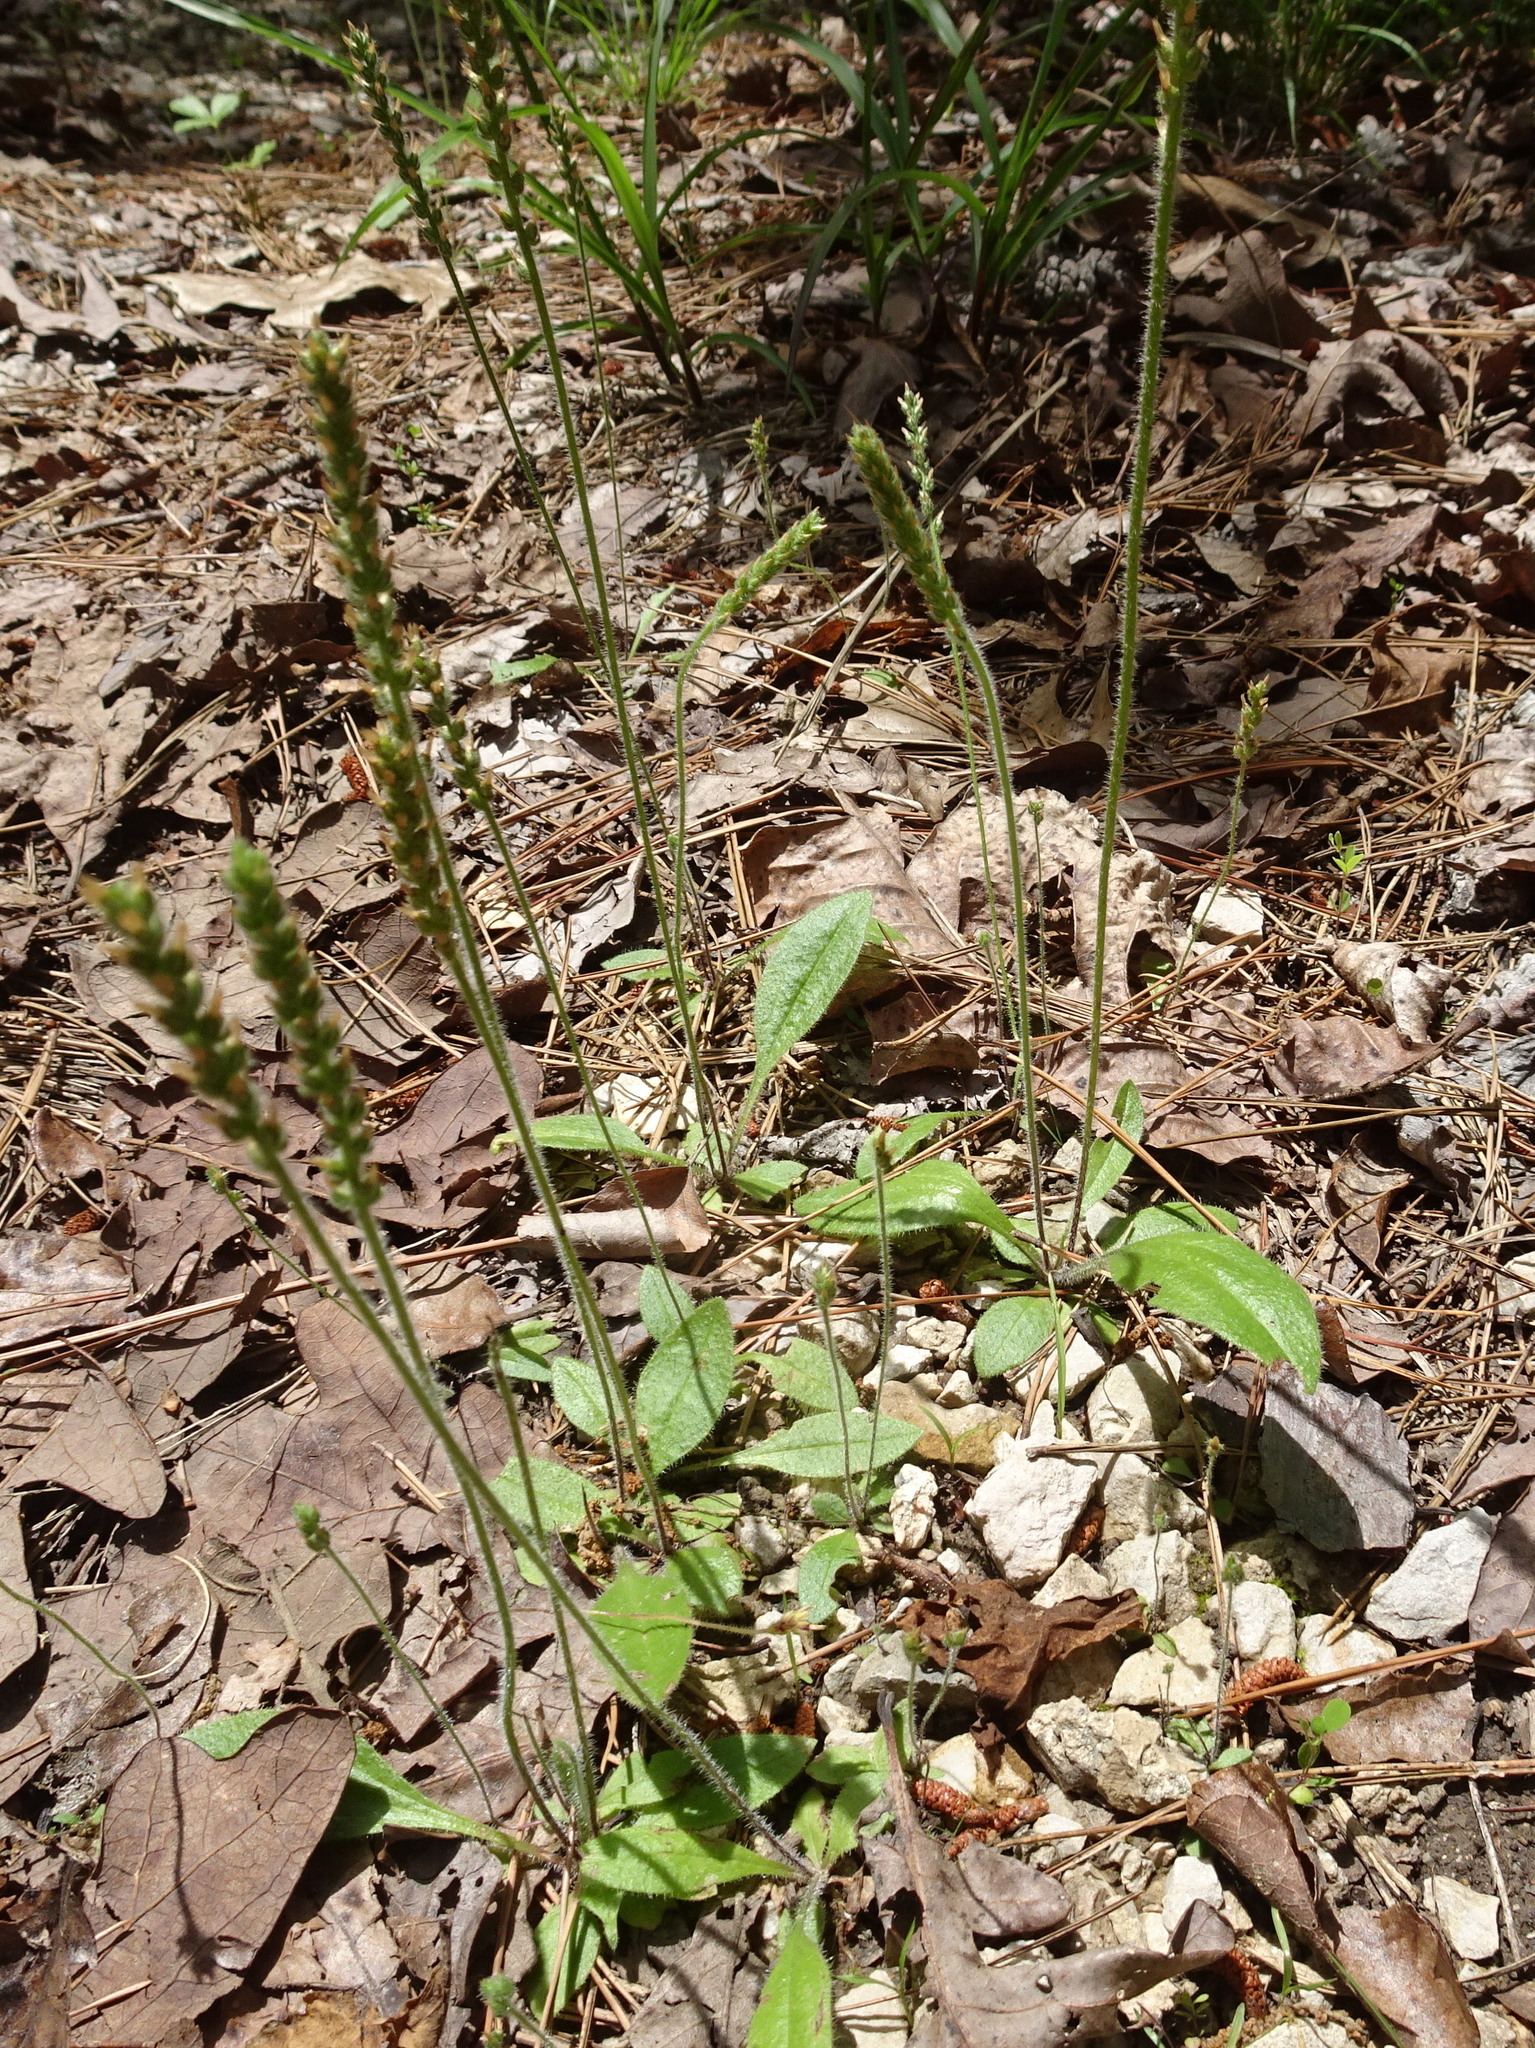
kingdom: Plantae
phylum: Tracheophyta
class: Magnoliopsida
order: Lamiales
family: Plantaginaceae
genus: Plantago
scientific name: Plantago virginica
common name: Hoary plantain
